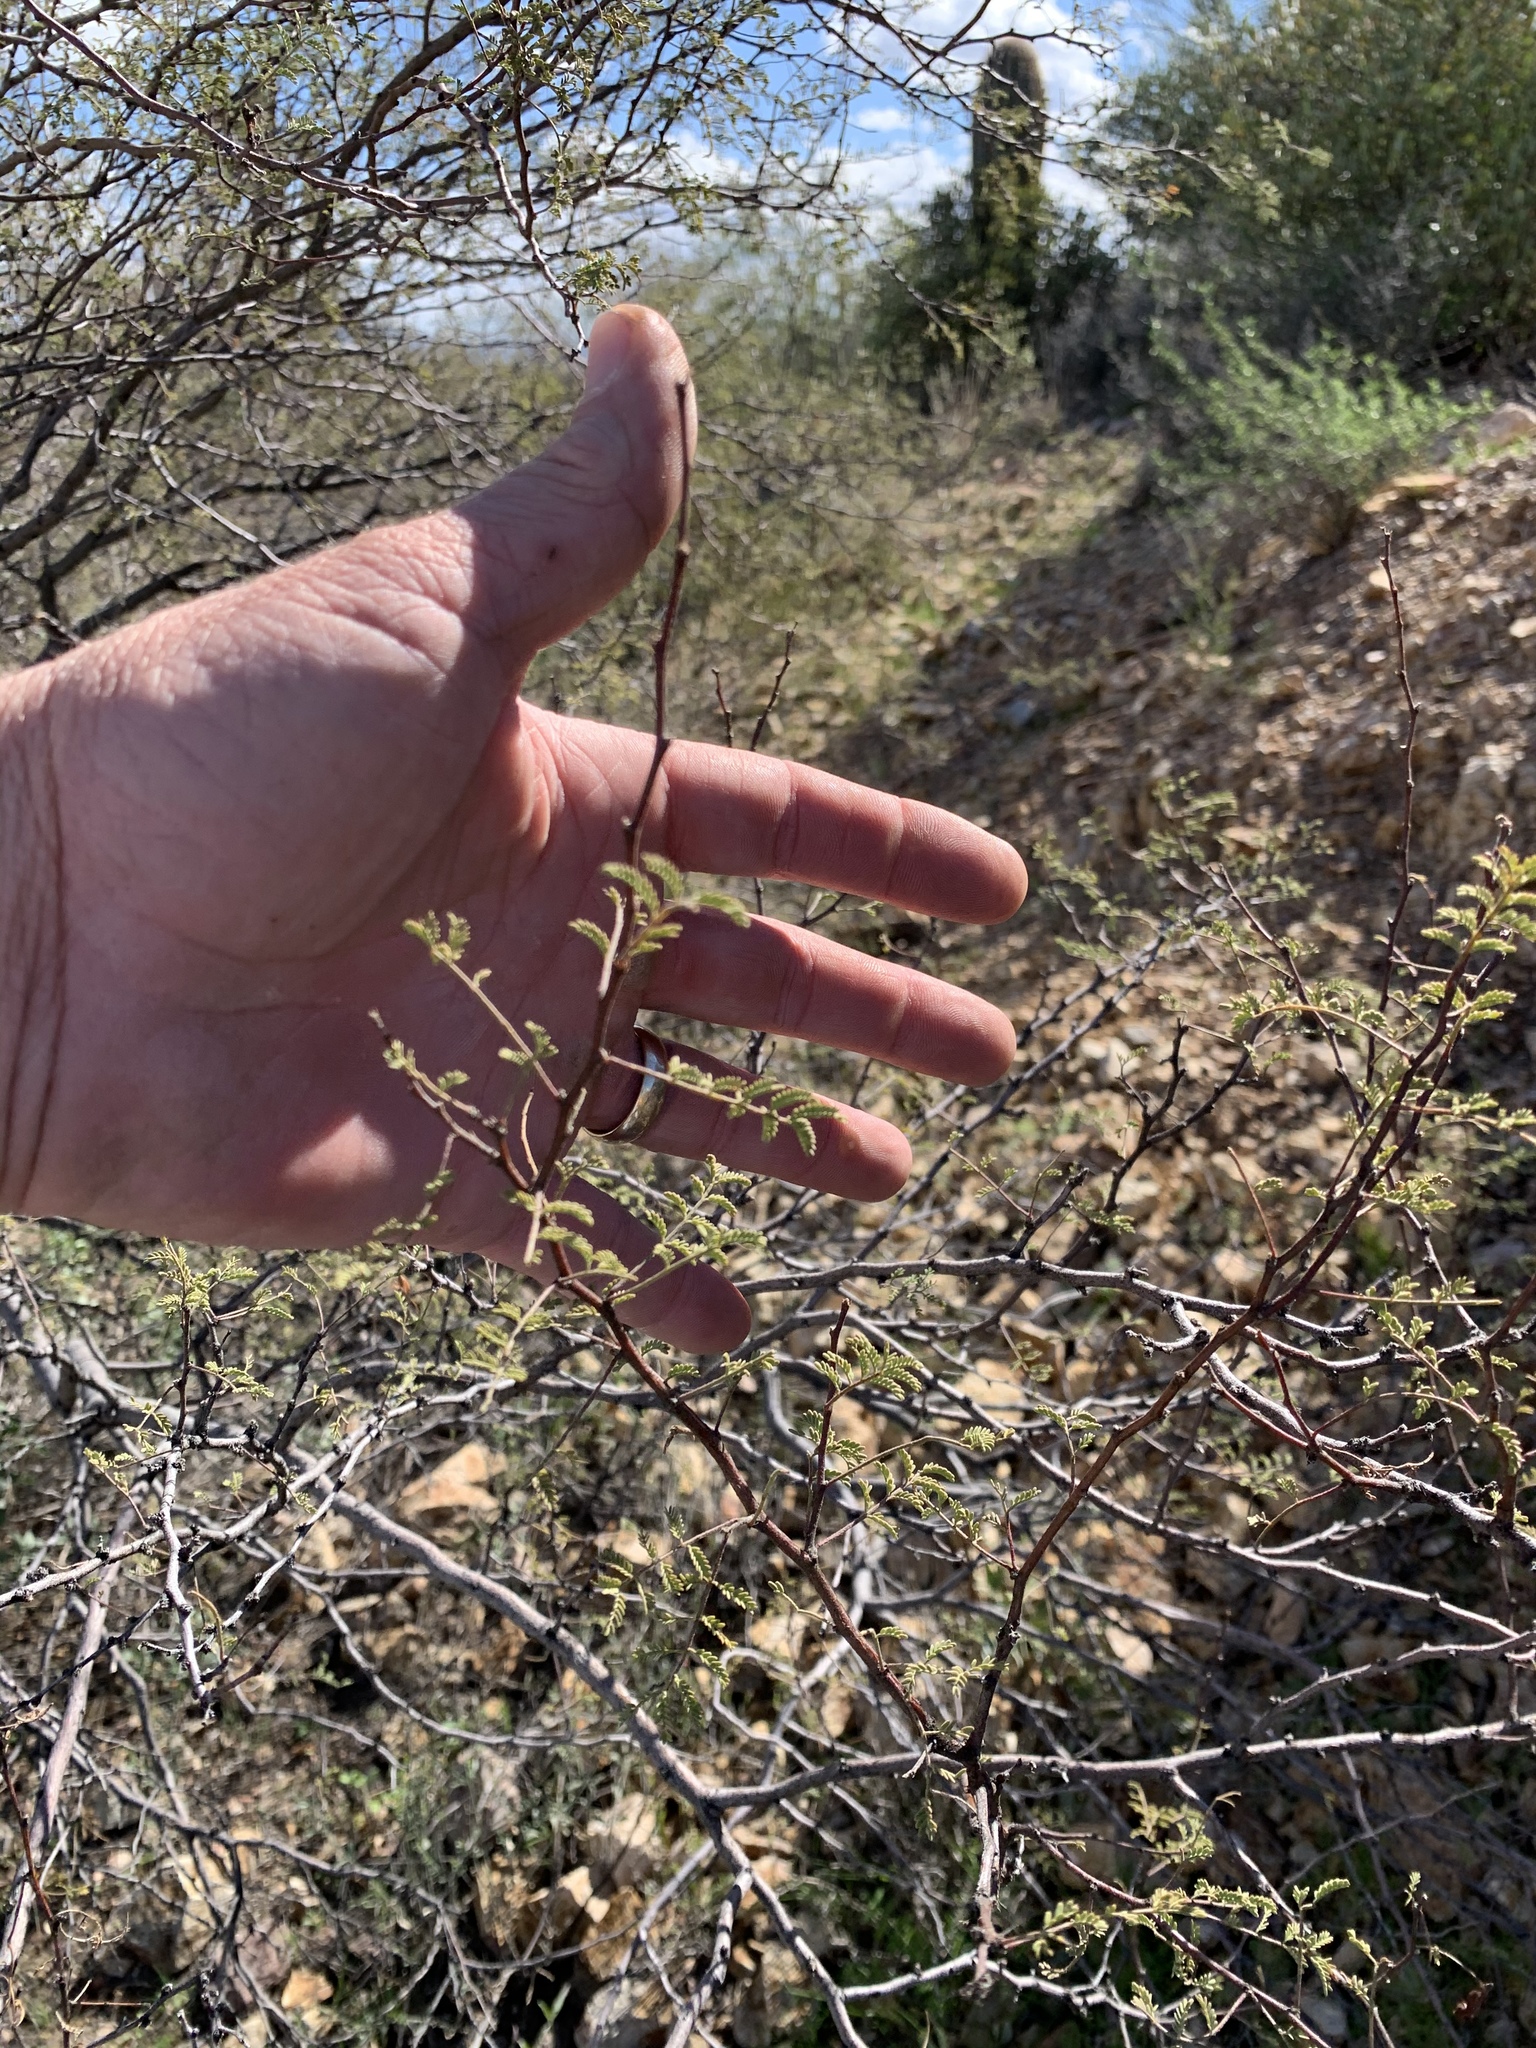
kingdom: Plantae
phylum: Tracheophyta
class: Magnoliopsida
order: Fabales
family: Fabaceae
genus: Vachellia
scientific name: Vachellia constricta
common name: Mescat acacia
